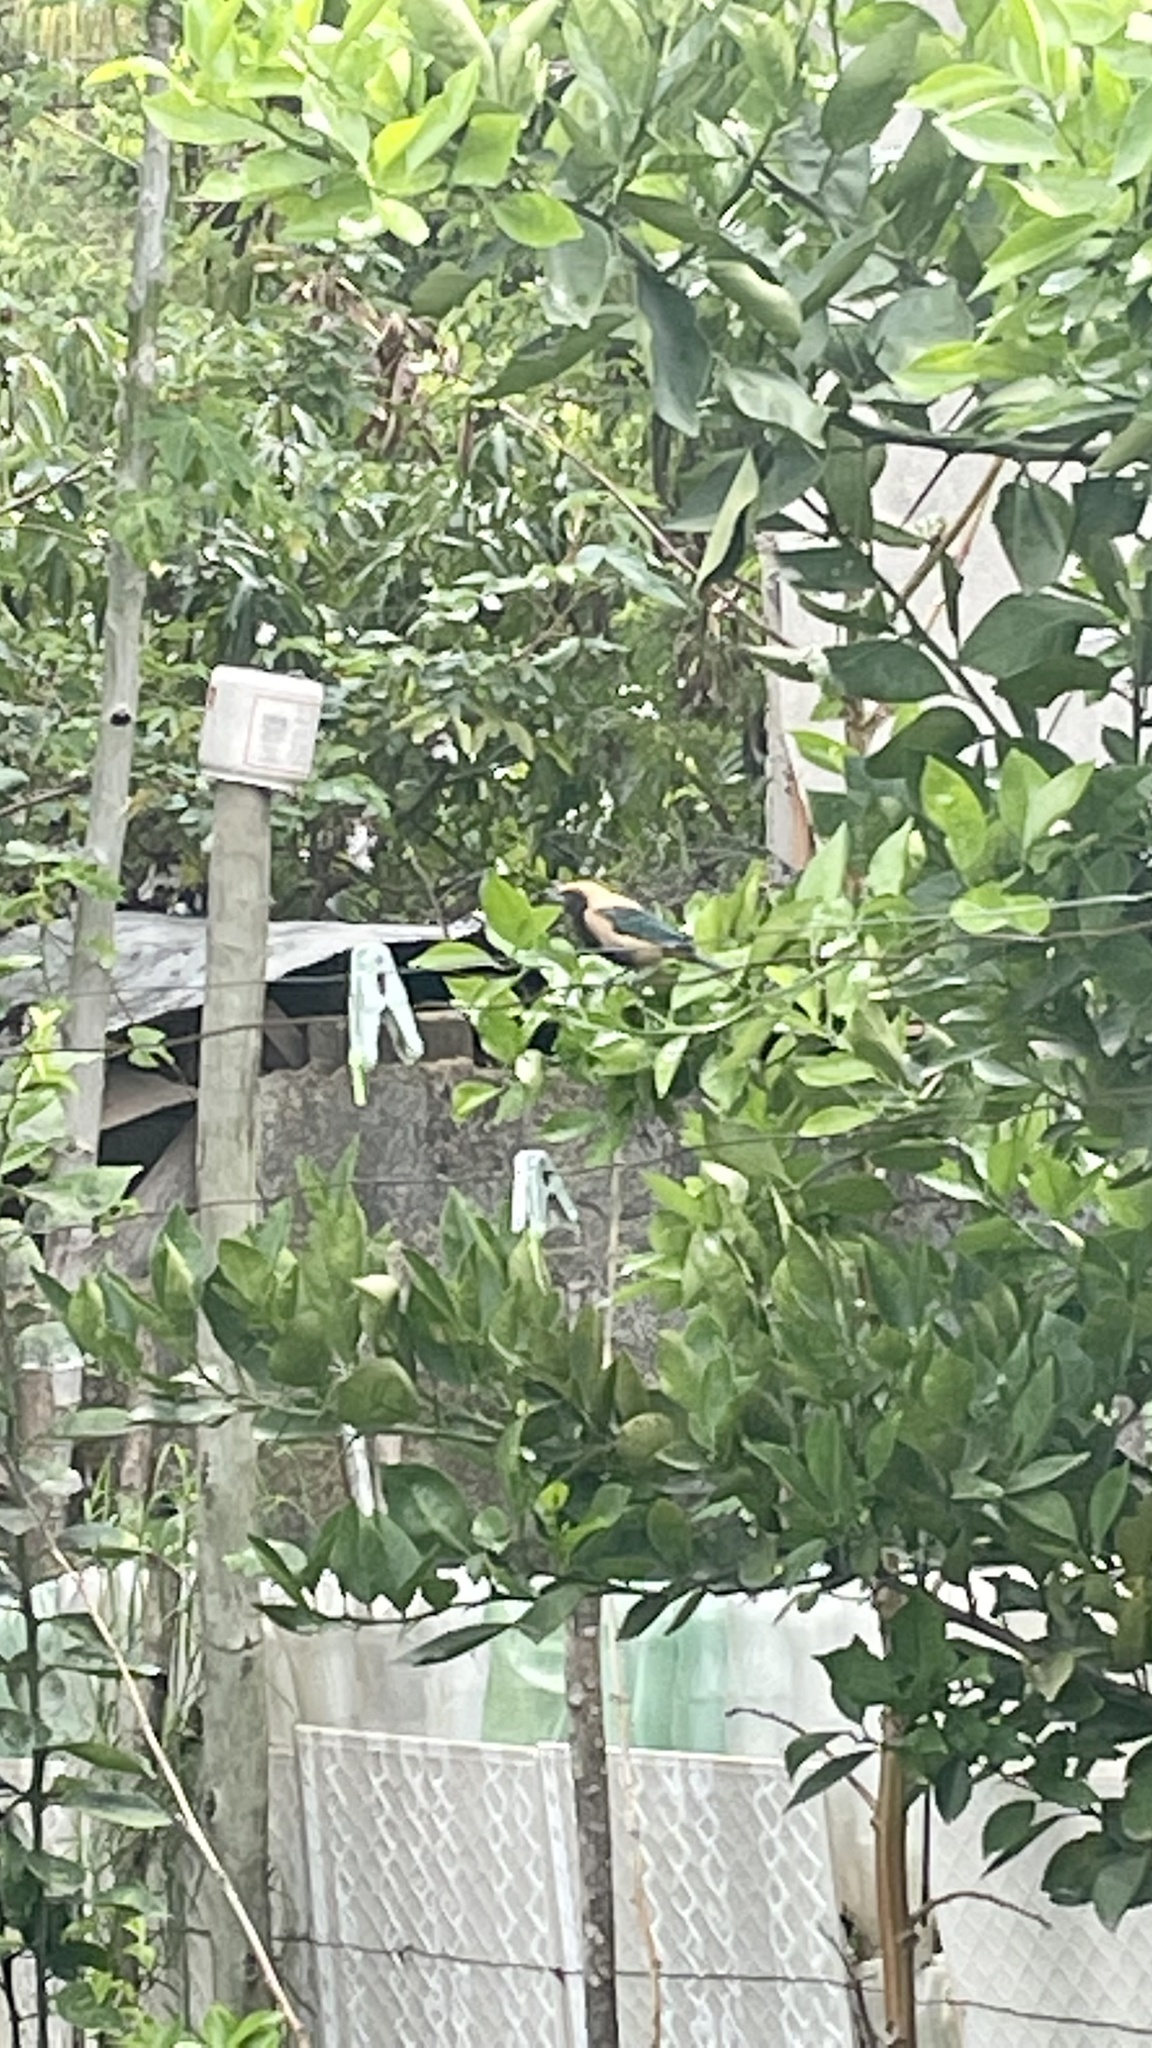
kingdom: Animalia
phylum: Chordata
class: Aves
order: Passeriformes
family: Thraupidae
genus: Stilpnia
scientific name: Stilpnia cayana
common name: Burnished-buff tanager
